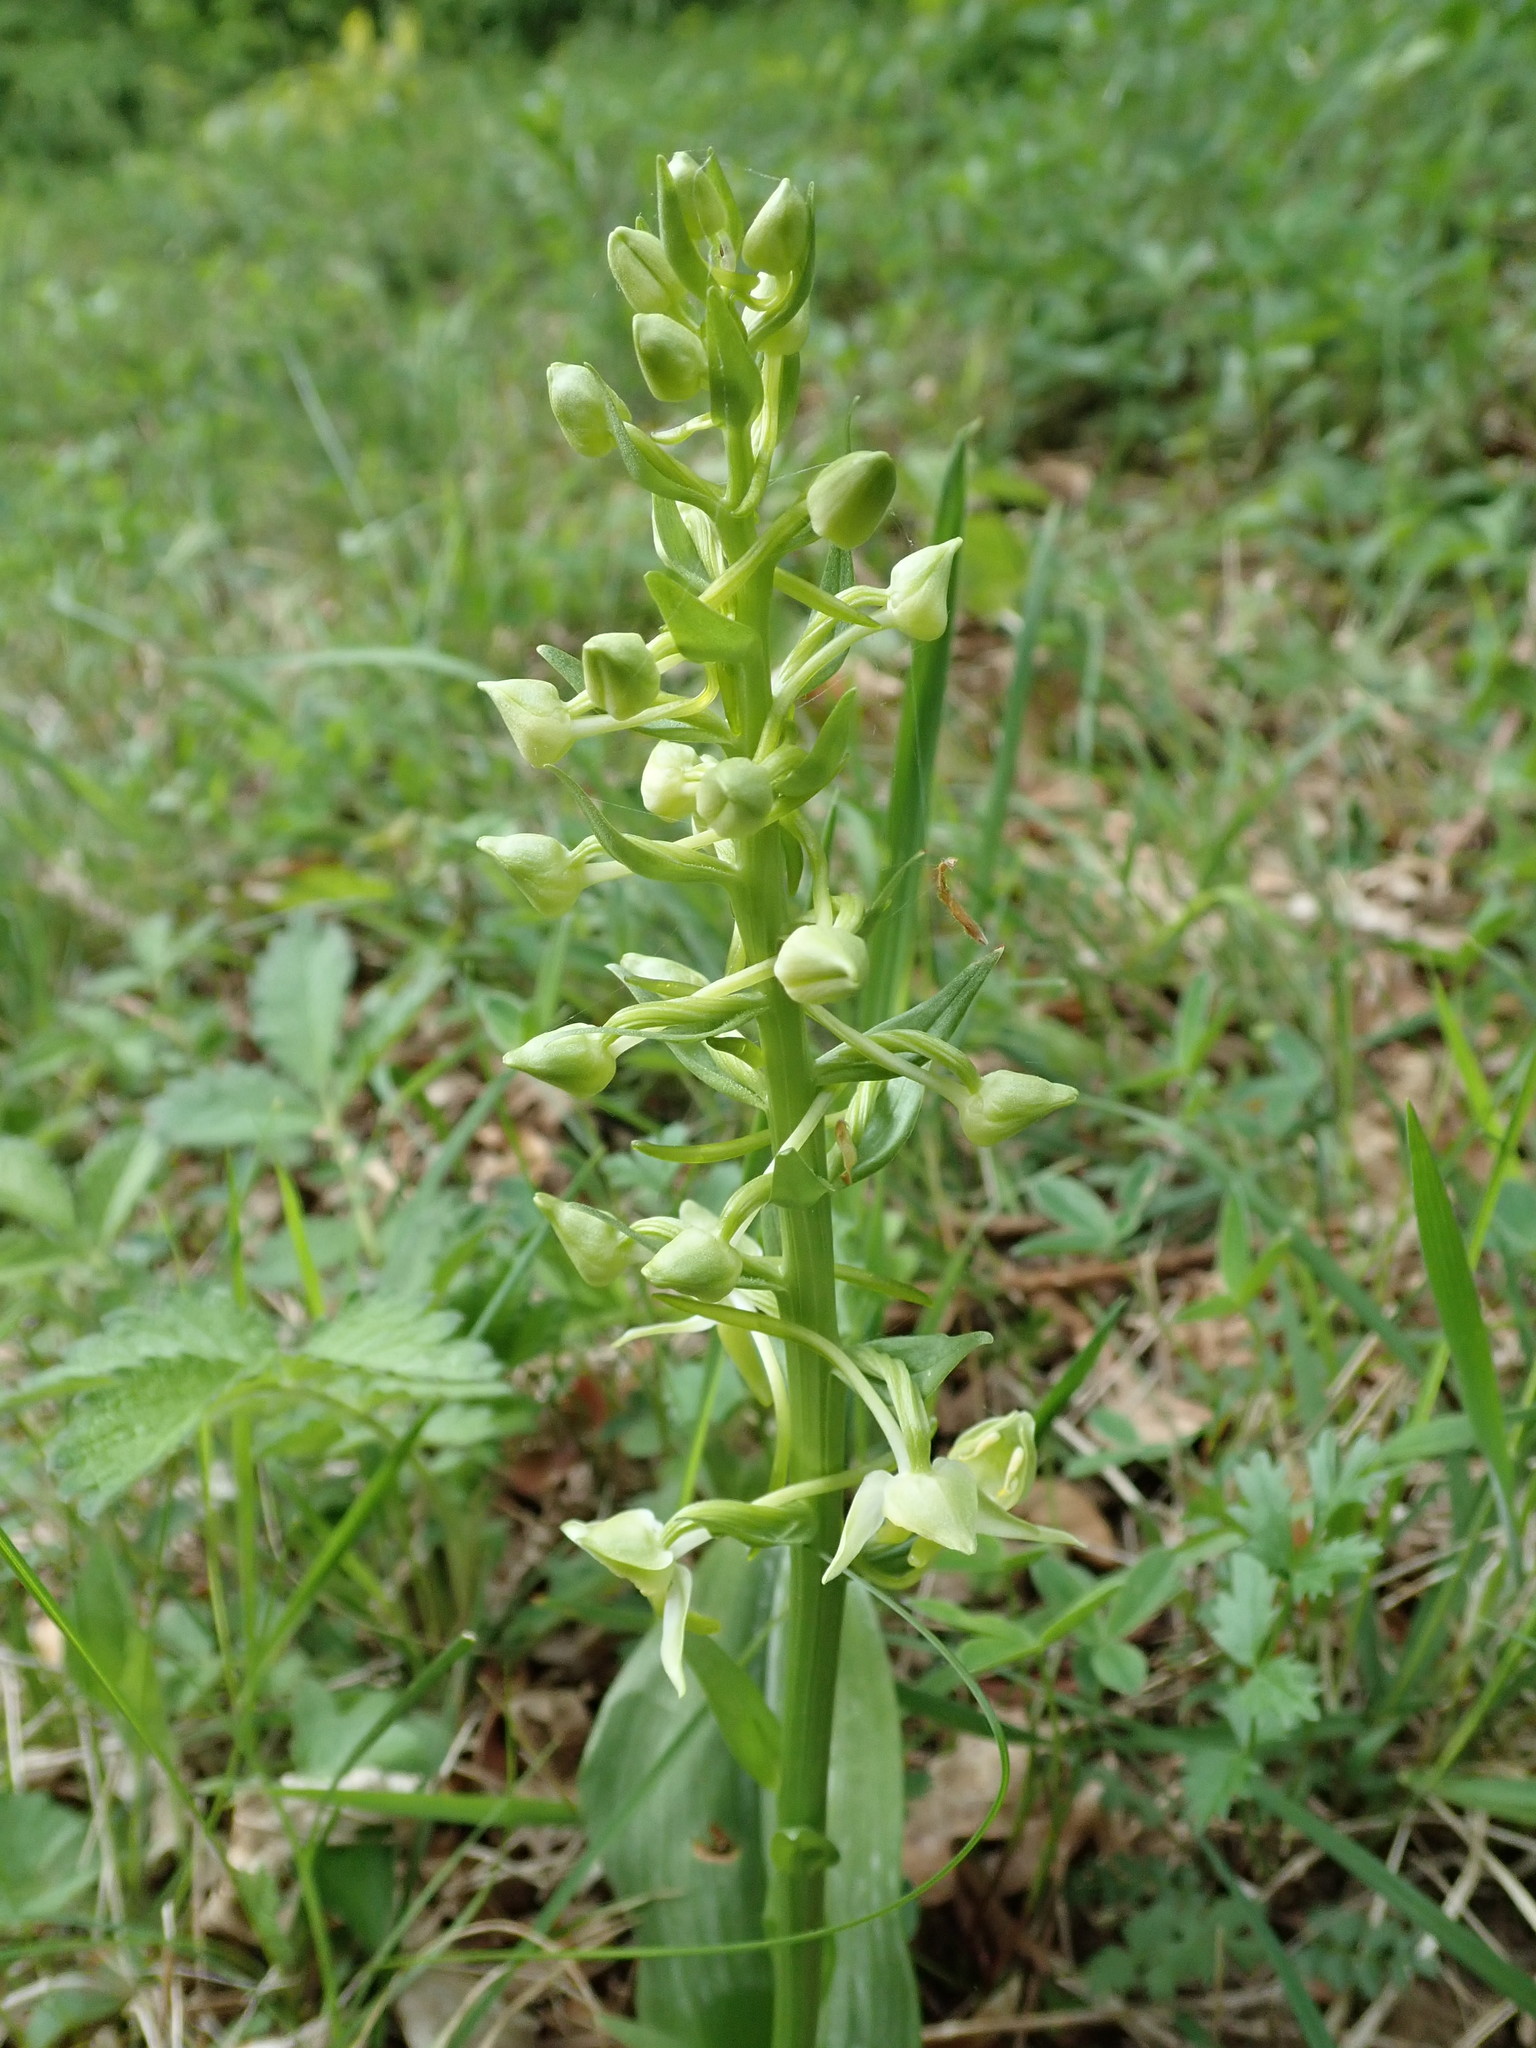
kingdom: Plantae
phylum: Tracheophyta
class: Liliopsida
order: Asparagales
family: Orchidaceae
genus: Platanthera
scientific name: Platanthera chlorantha
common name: Greater butterfly-orchid
